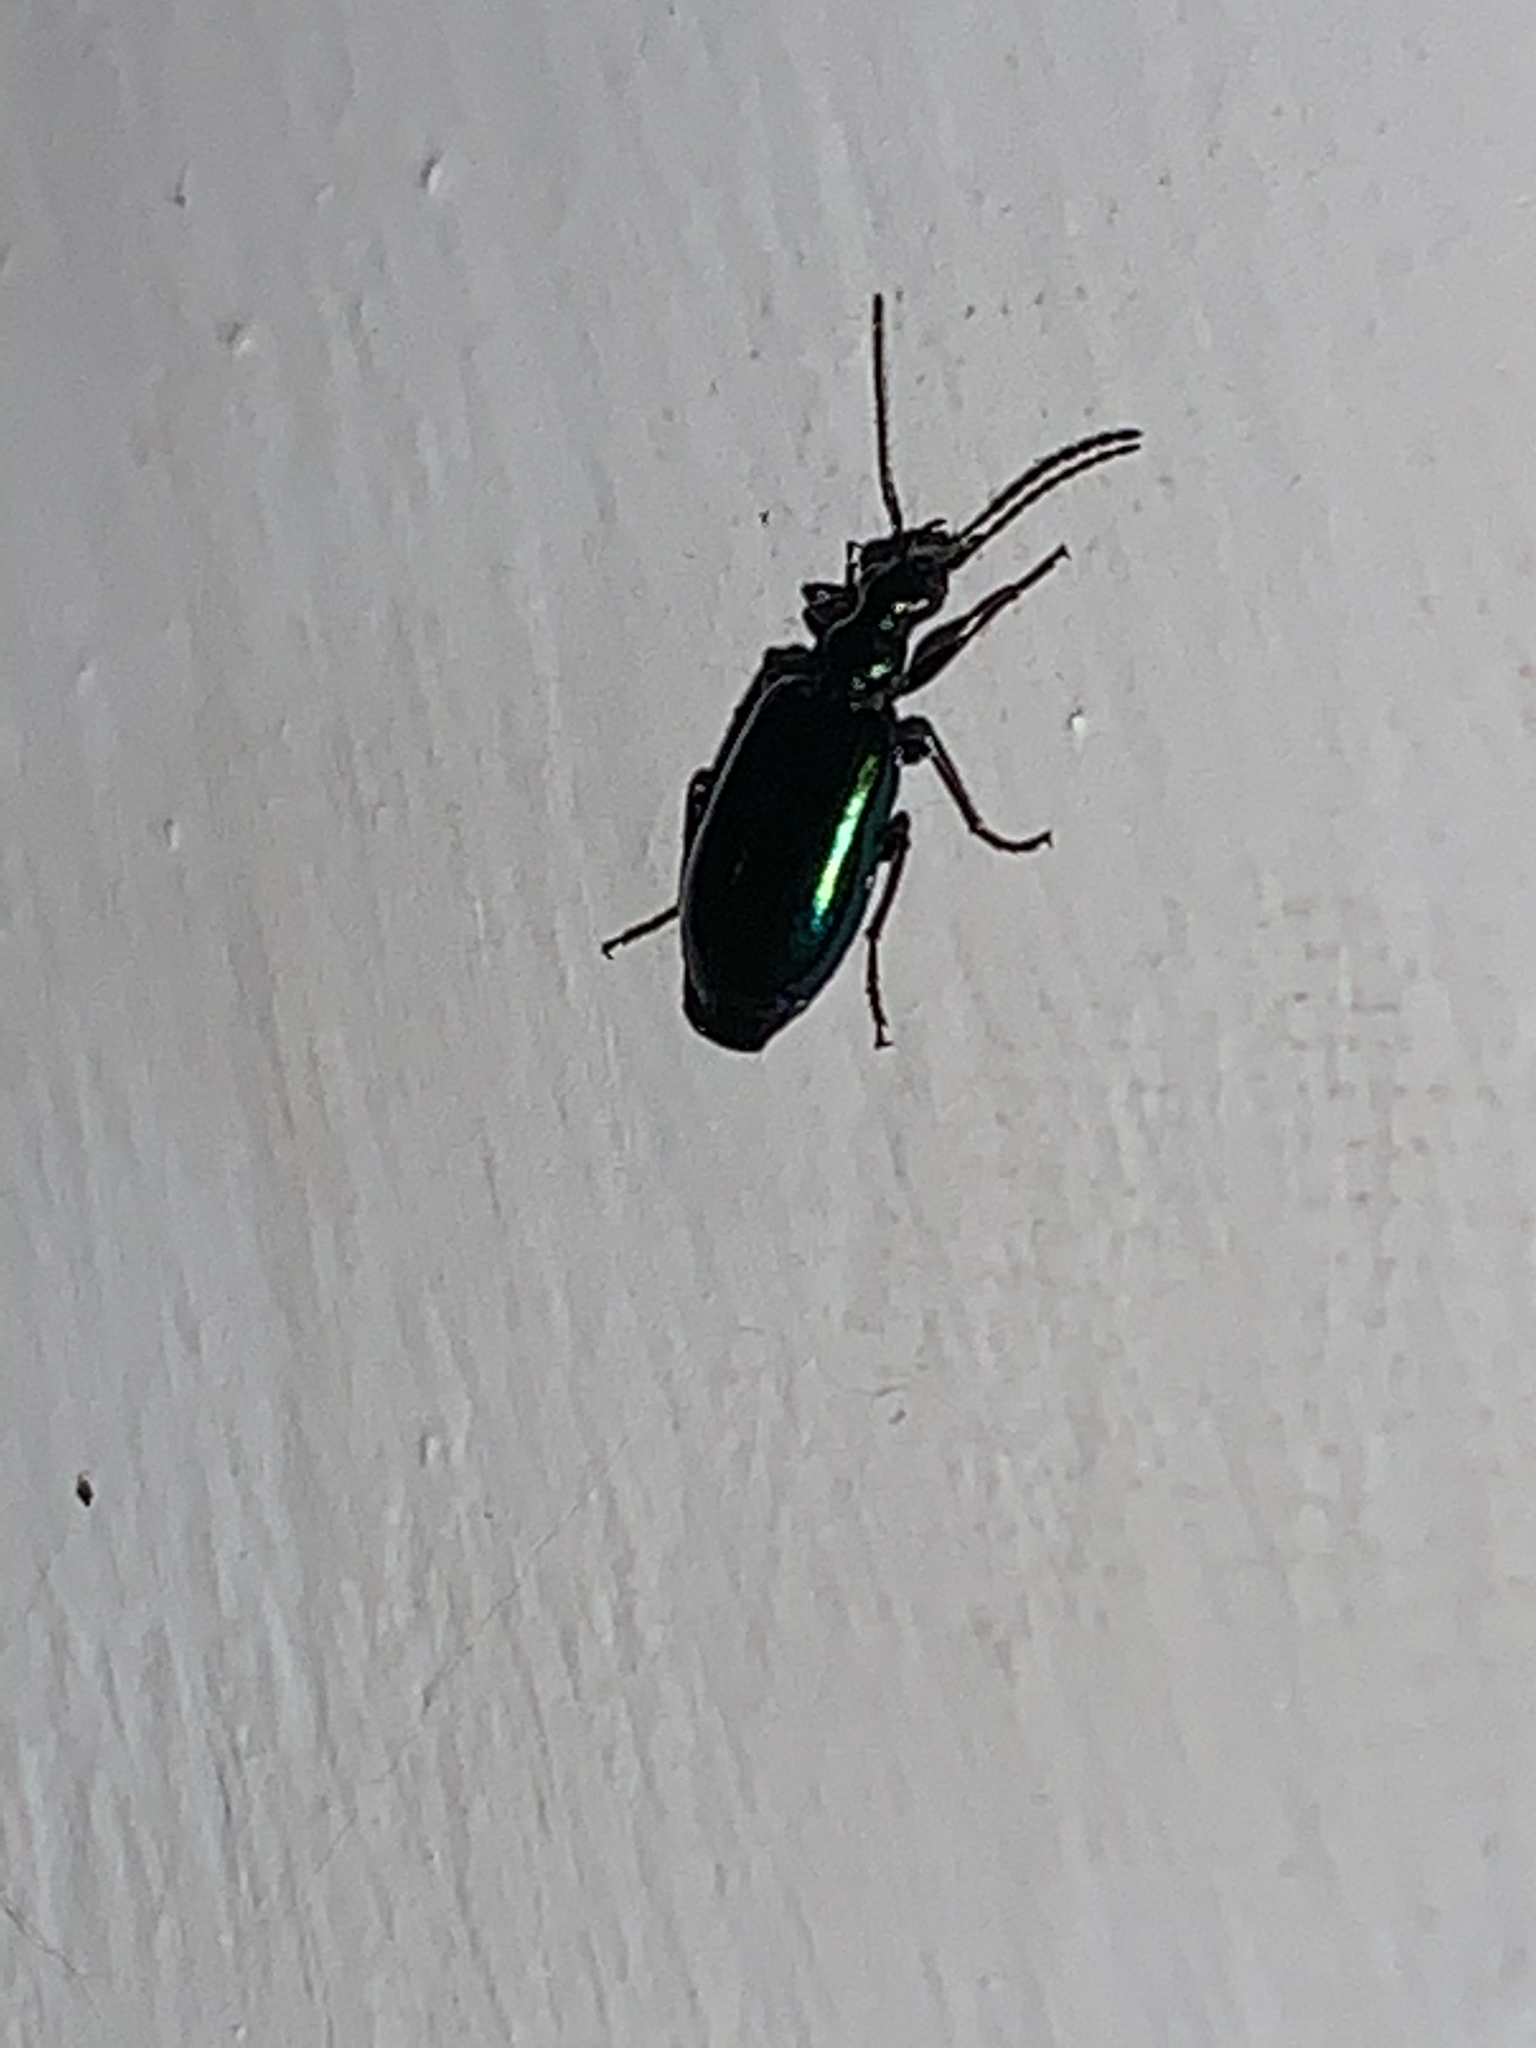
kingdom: Animalia
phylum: Arthropoda
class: Insecta
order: Coleoptera
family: Carabidae
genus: Lebia
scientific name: Lebia viridis
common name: Flower lebia beetle
